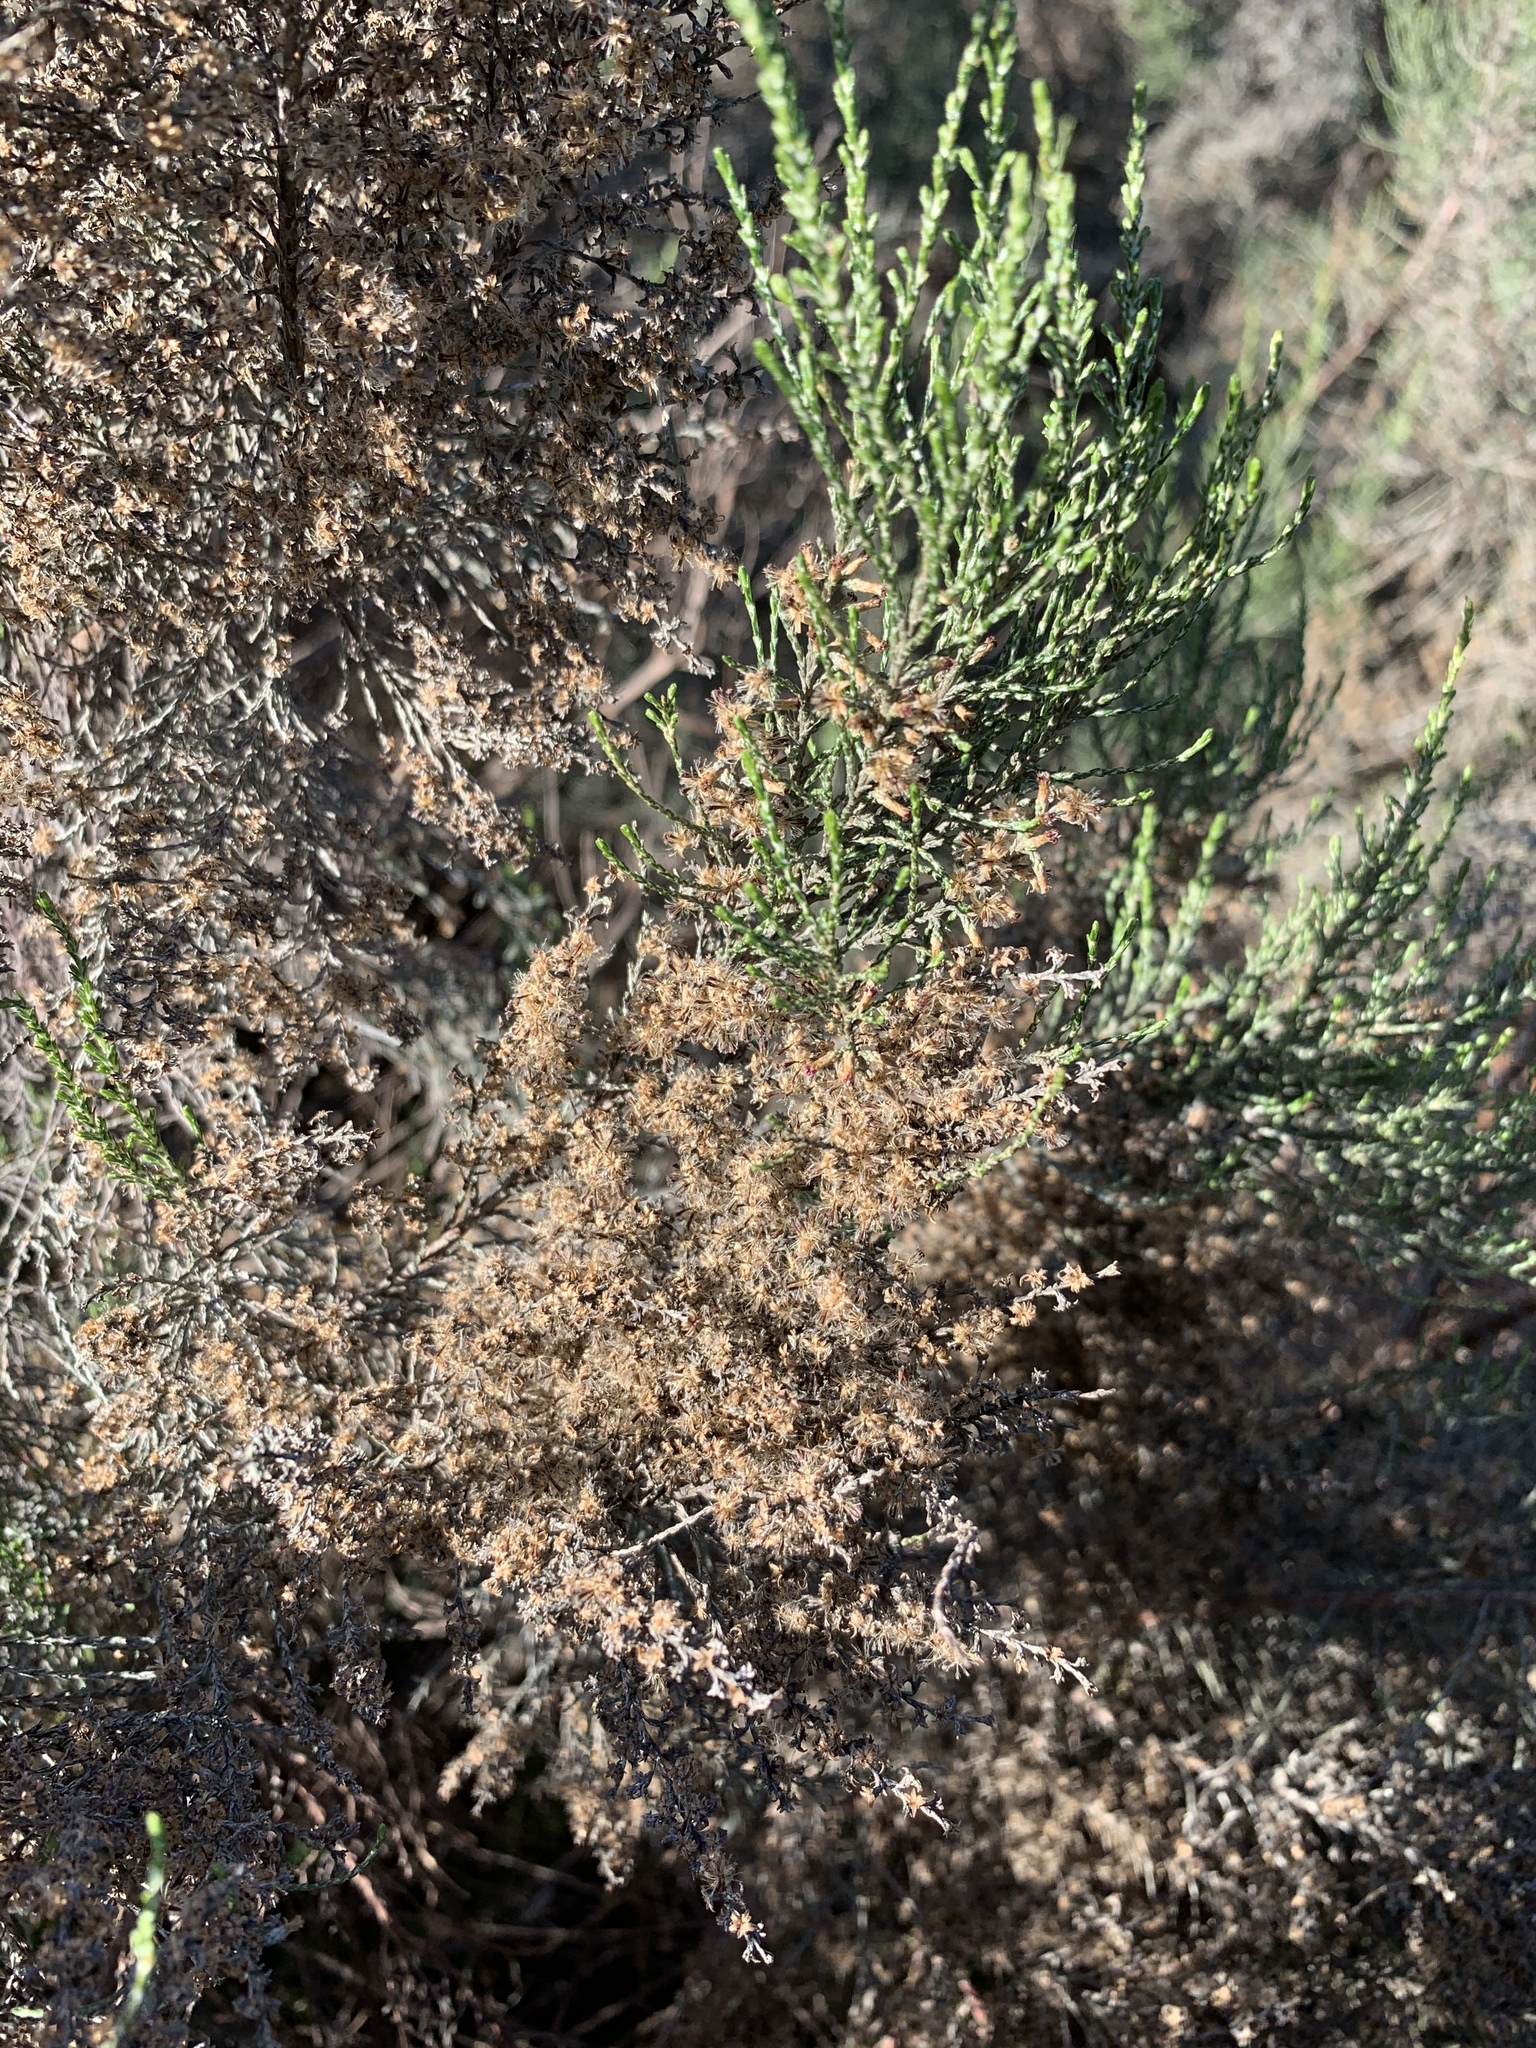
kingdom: Plantae
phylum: Tracheophyta
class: Magnoliopsida
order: Asterales
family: Asteraceae
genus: Dicerothamnus
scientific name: Dicerothamnus rhinocerotis
